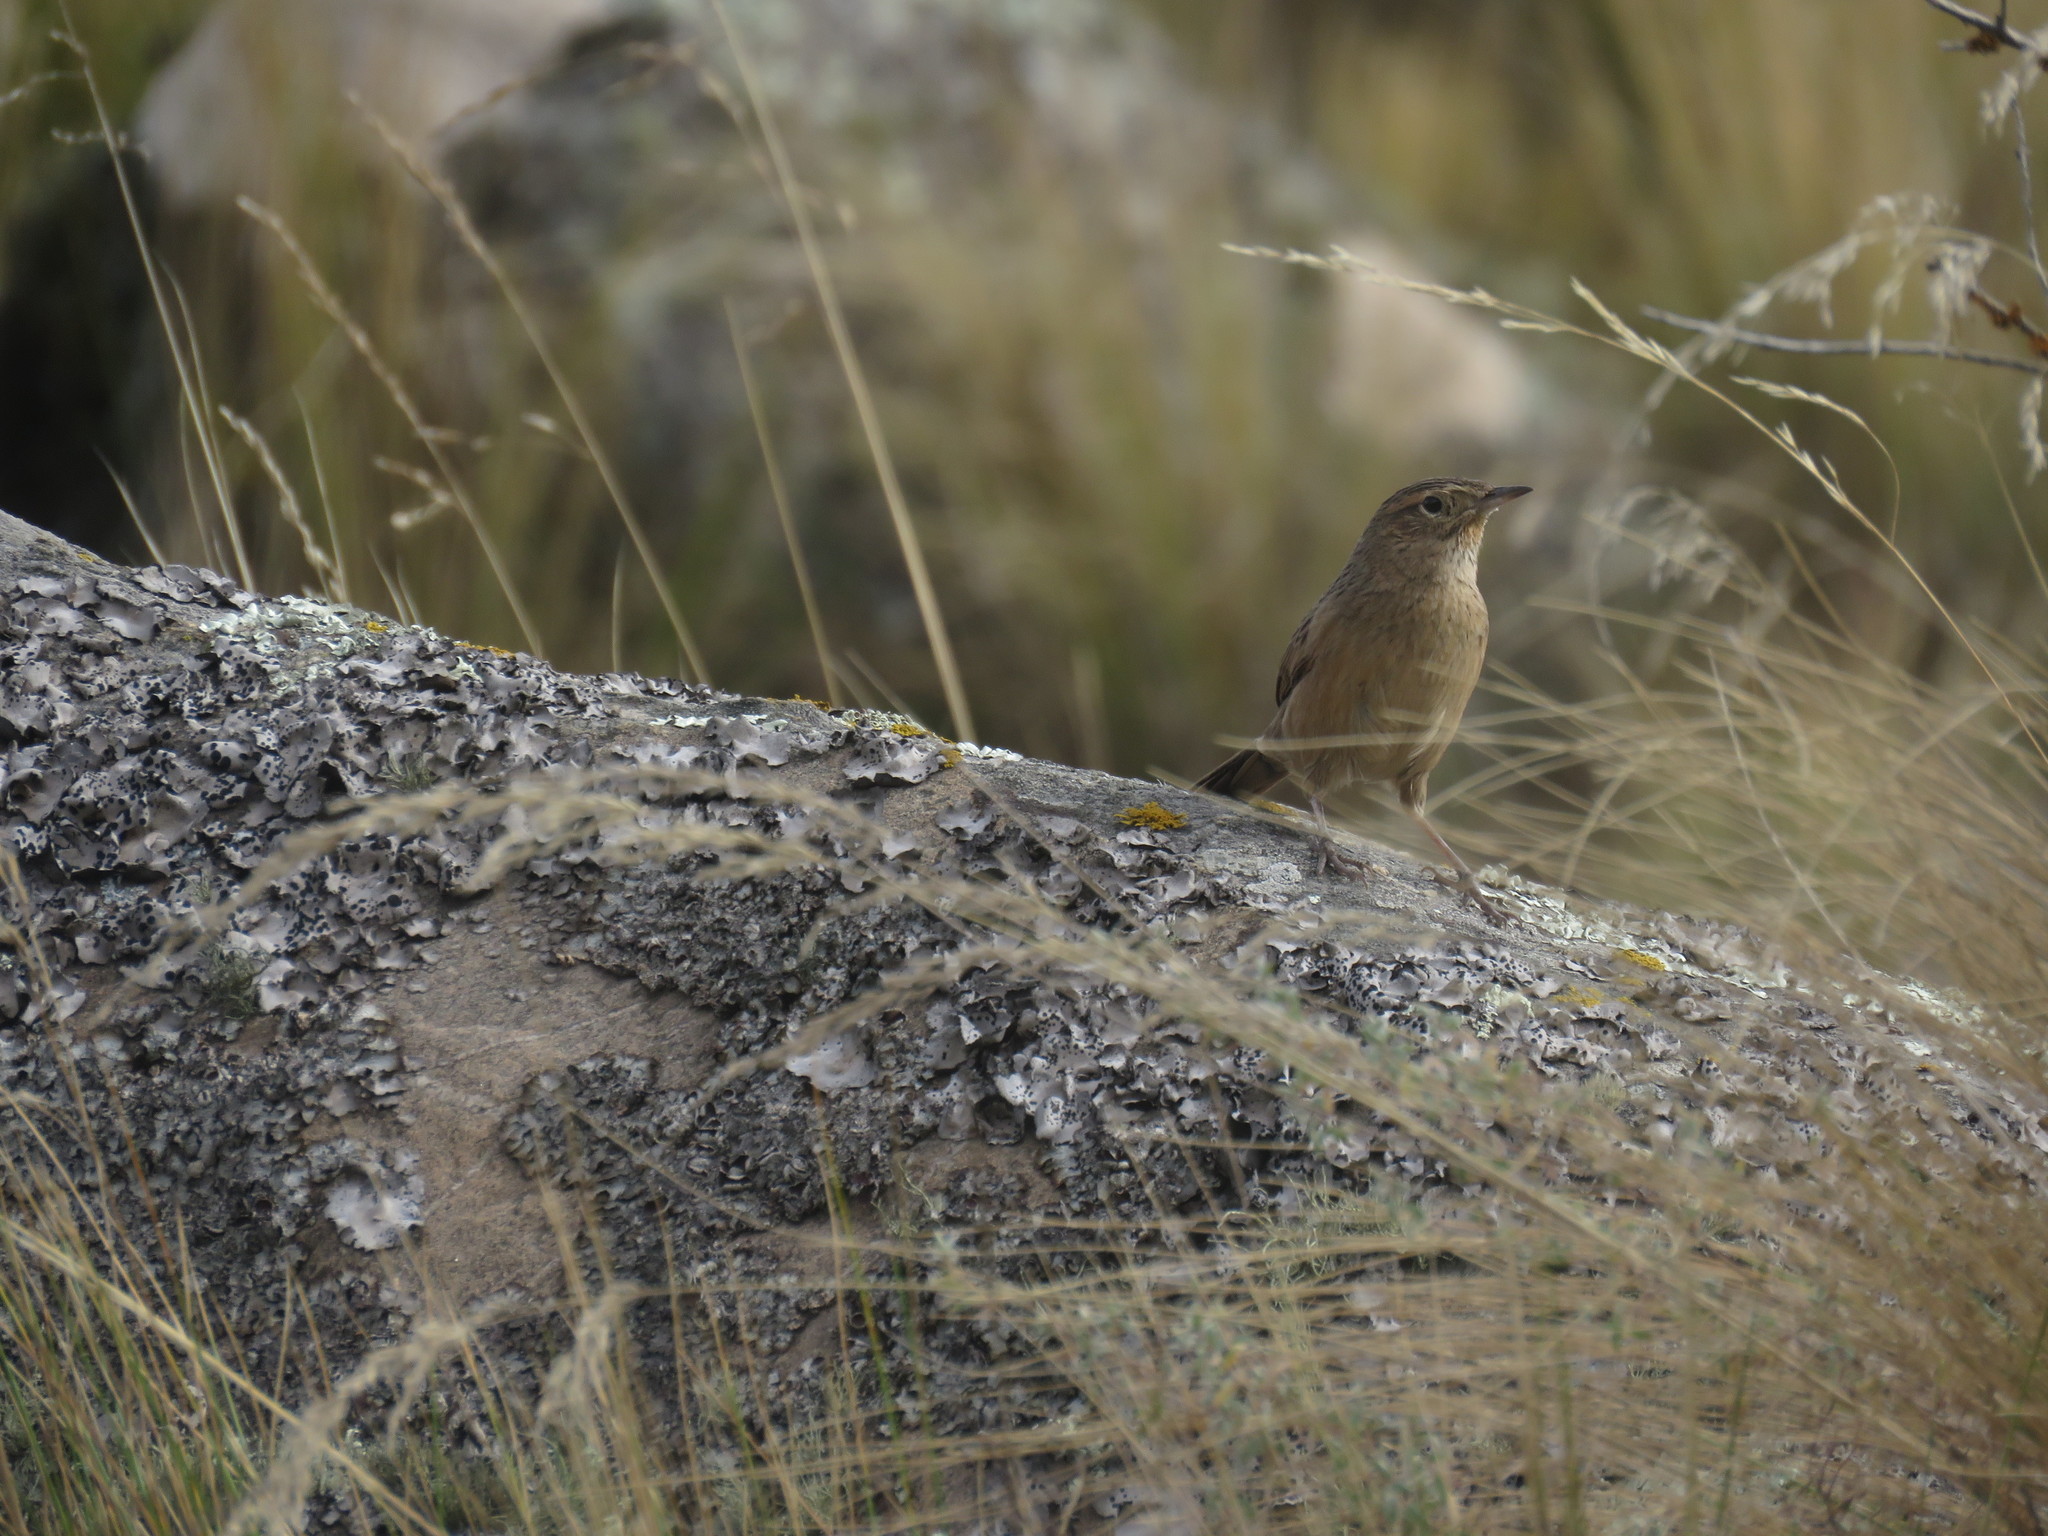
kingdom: Animalia
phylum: Chordata
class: Aves
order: Passeriformes
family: Furnariidae
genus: Asthenes
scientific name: Asthenes wyatti
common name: Streak-backed canastero
